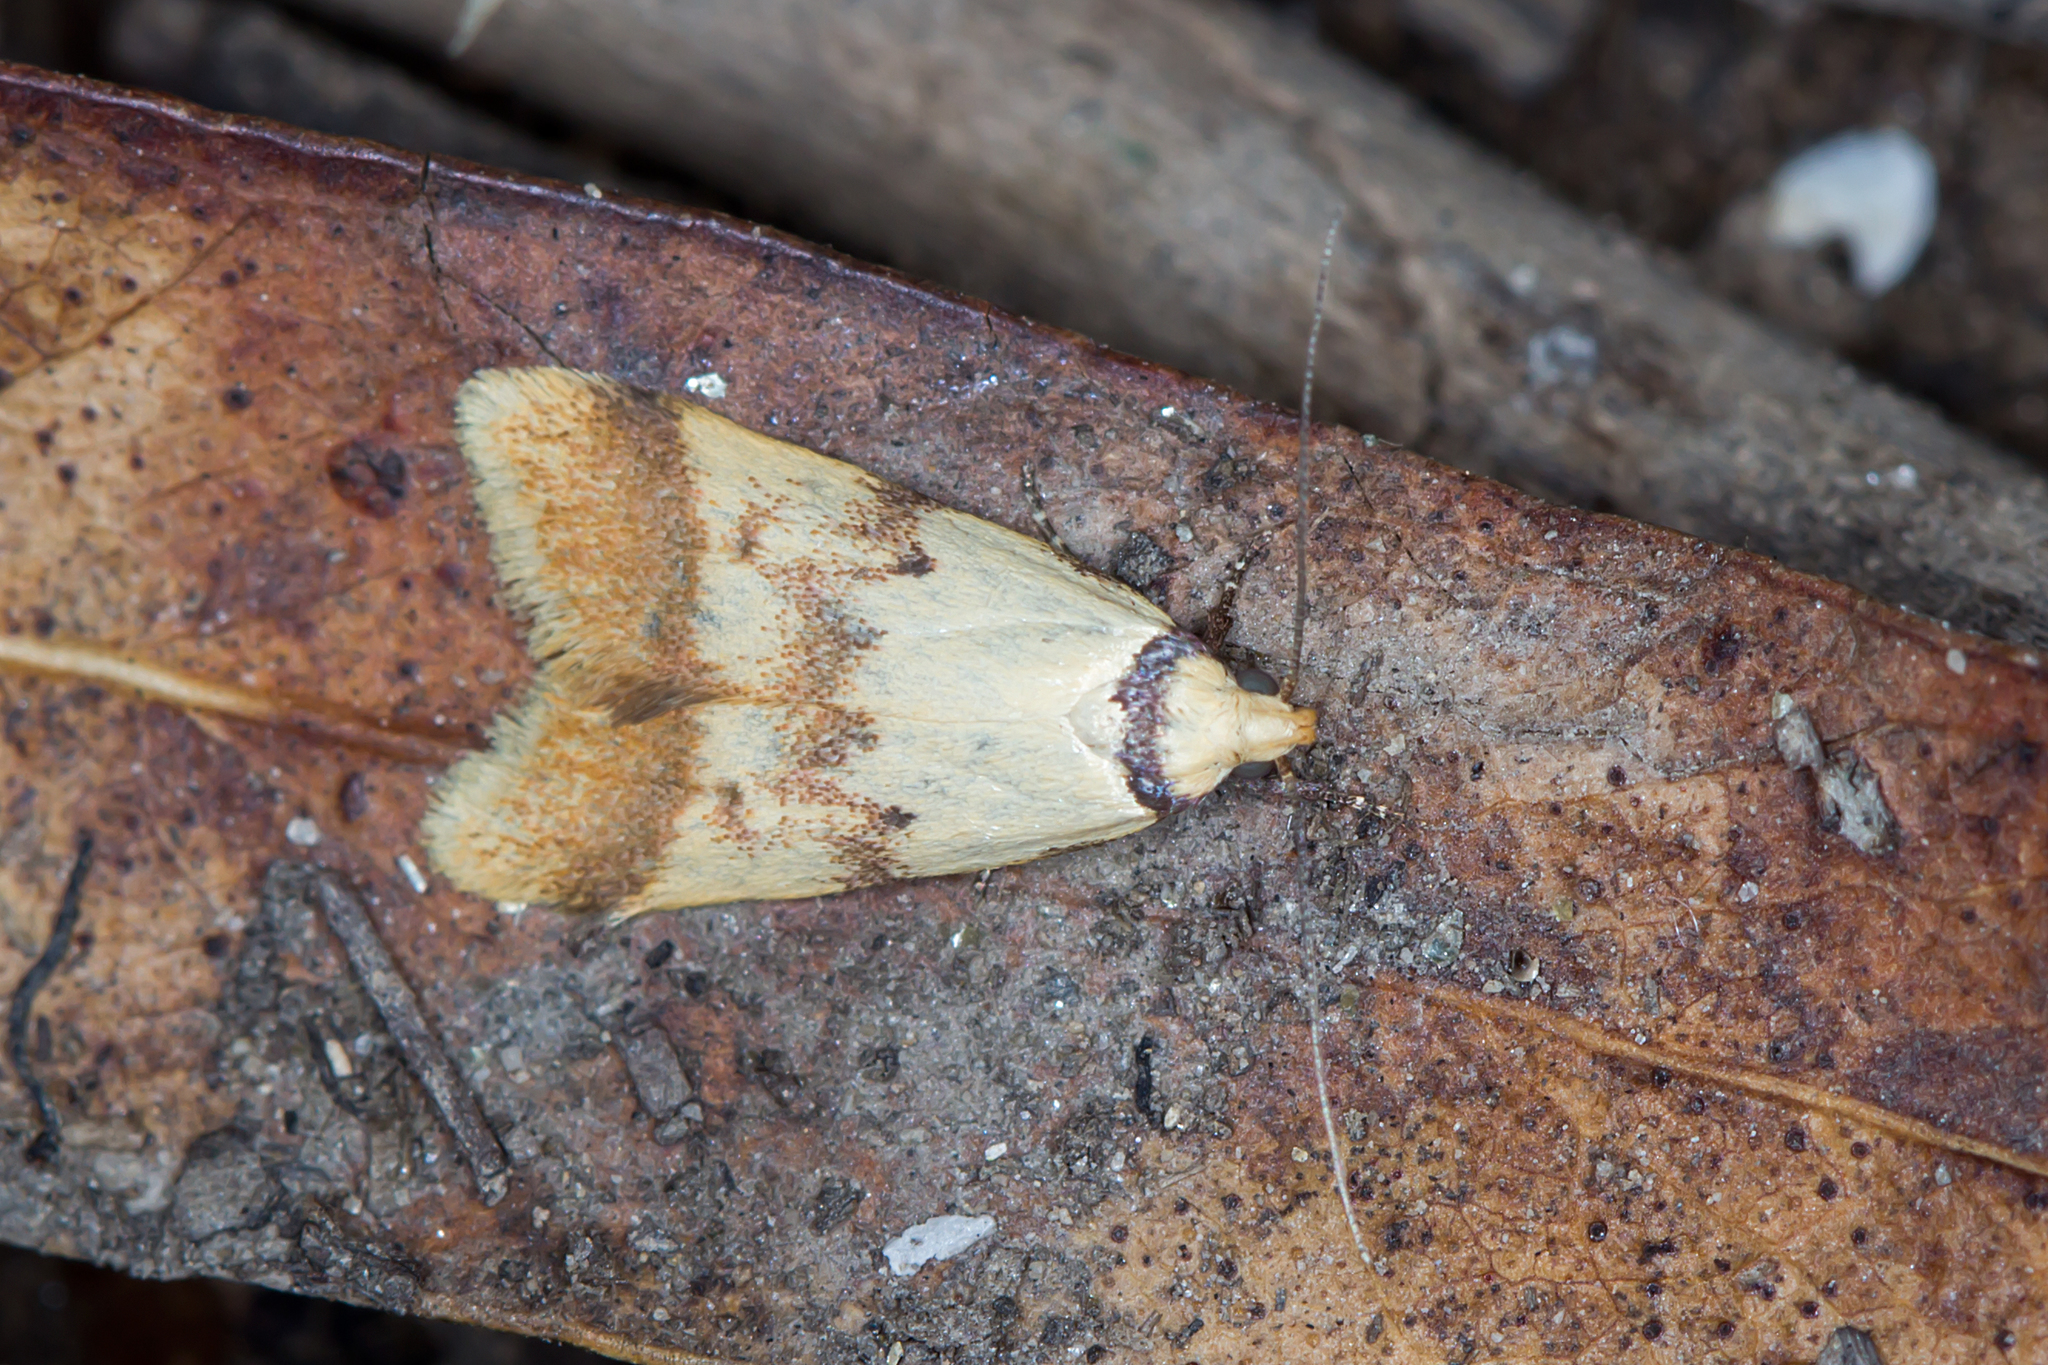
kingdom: Animalia
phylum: Arthropoda
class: Insecta
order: Lepidoptera
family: Oecophoridae
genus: Heteroteucha
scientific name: Heteroteucha anthodora
